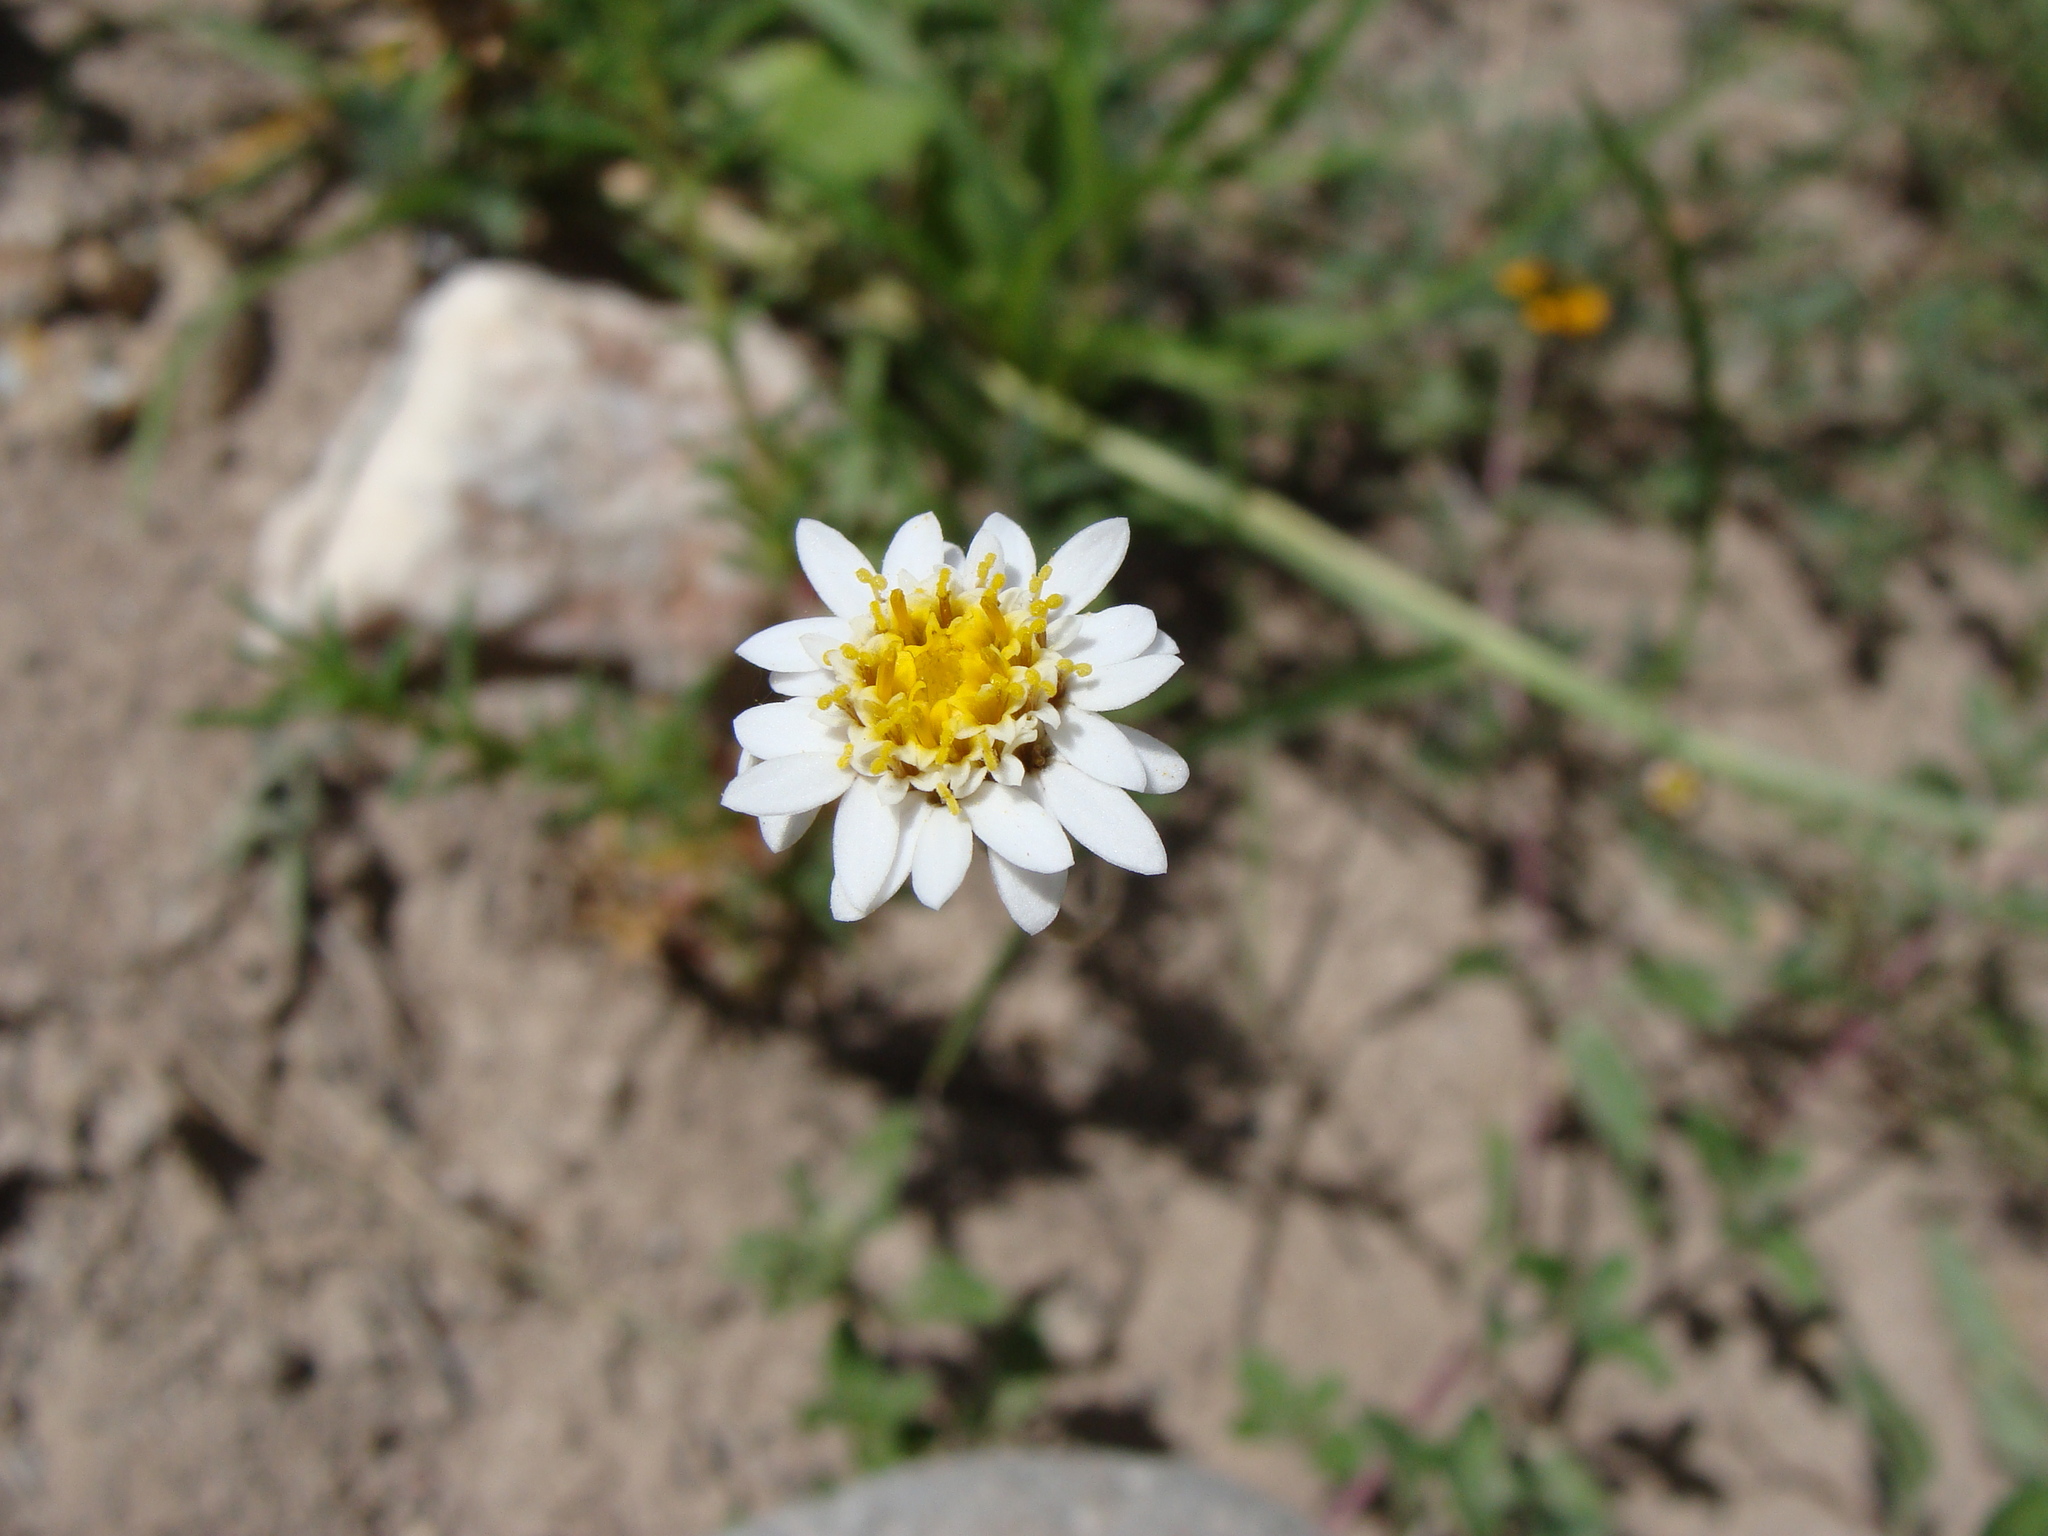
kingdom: Plantae
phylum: Tracheophyta
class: Magnoliopsida
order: Asterales
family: Asteraceae
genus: Tridax
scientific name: Tridax coronopifolia
